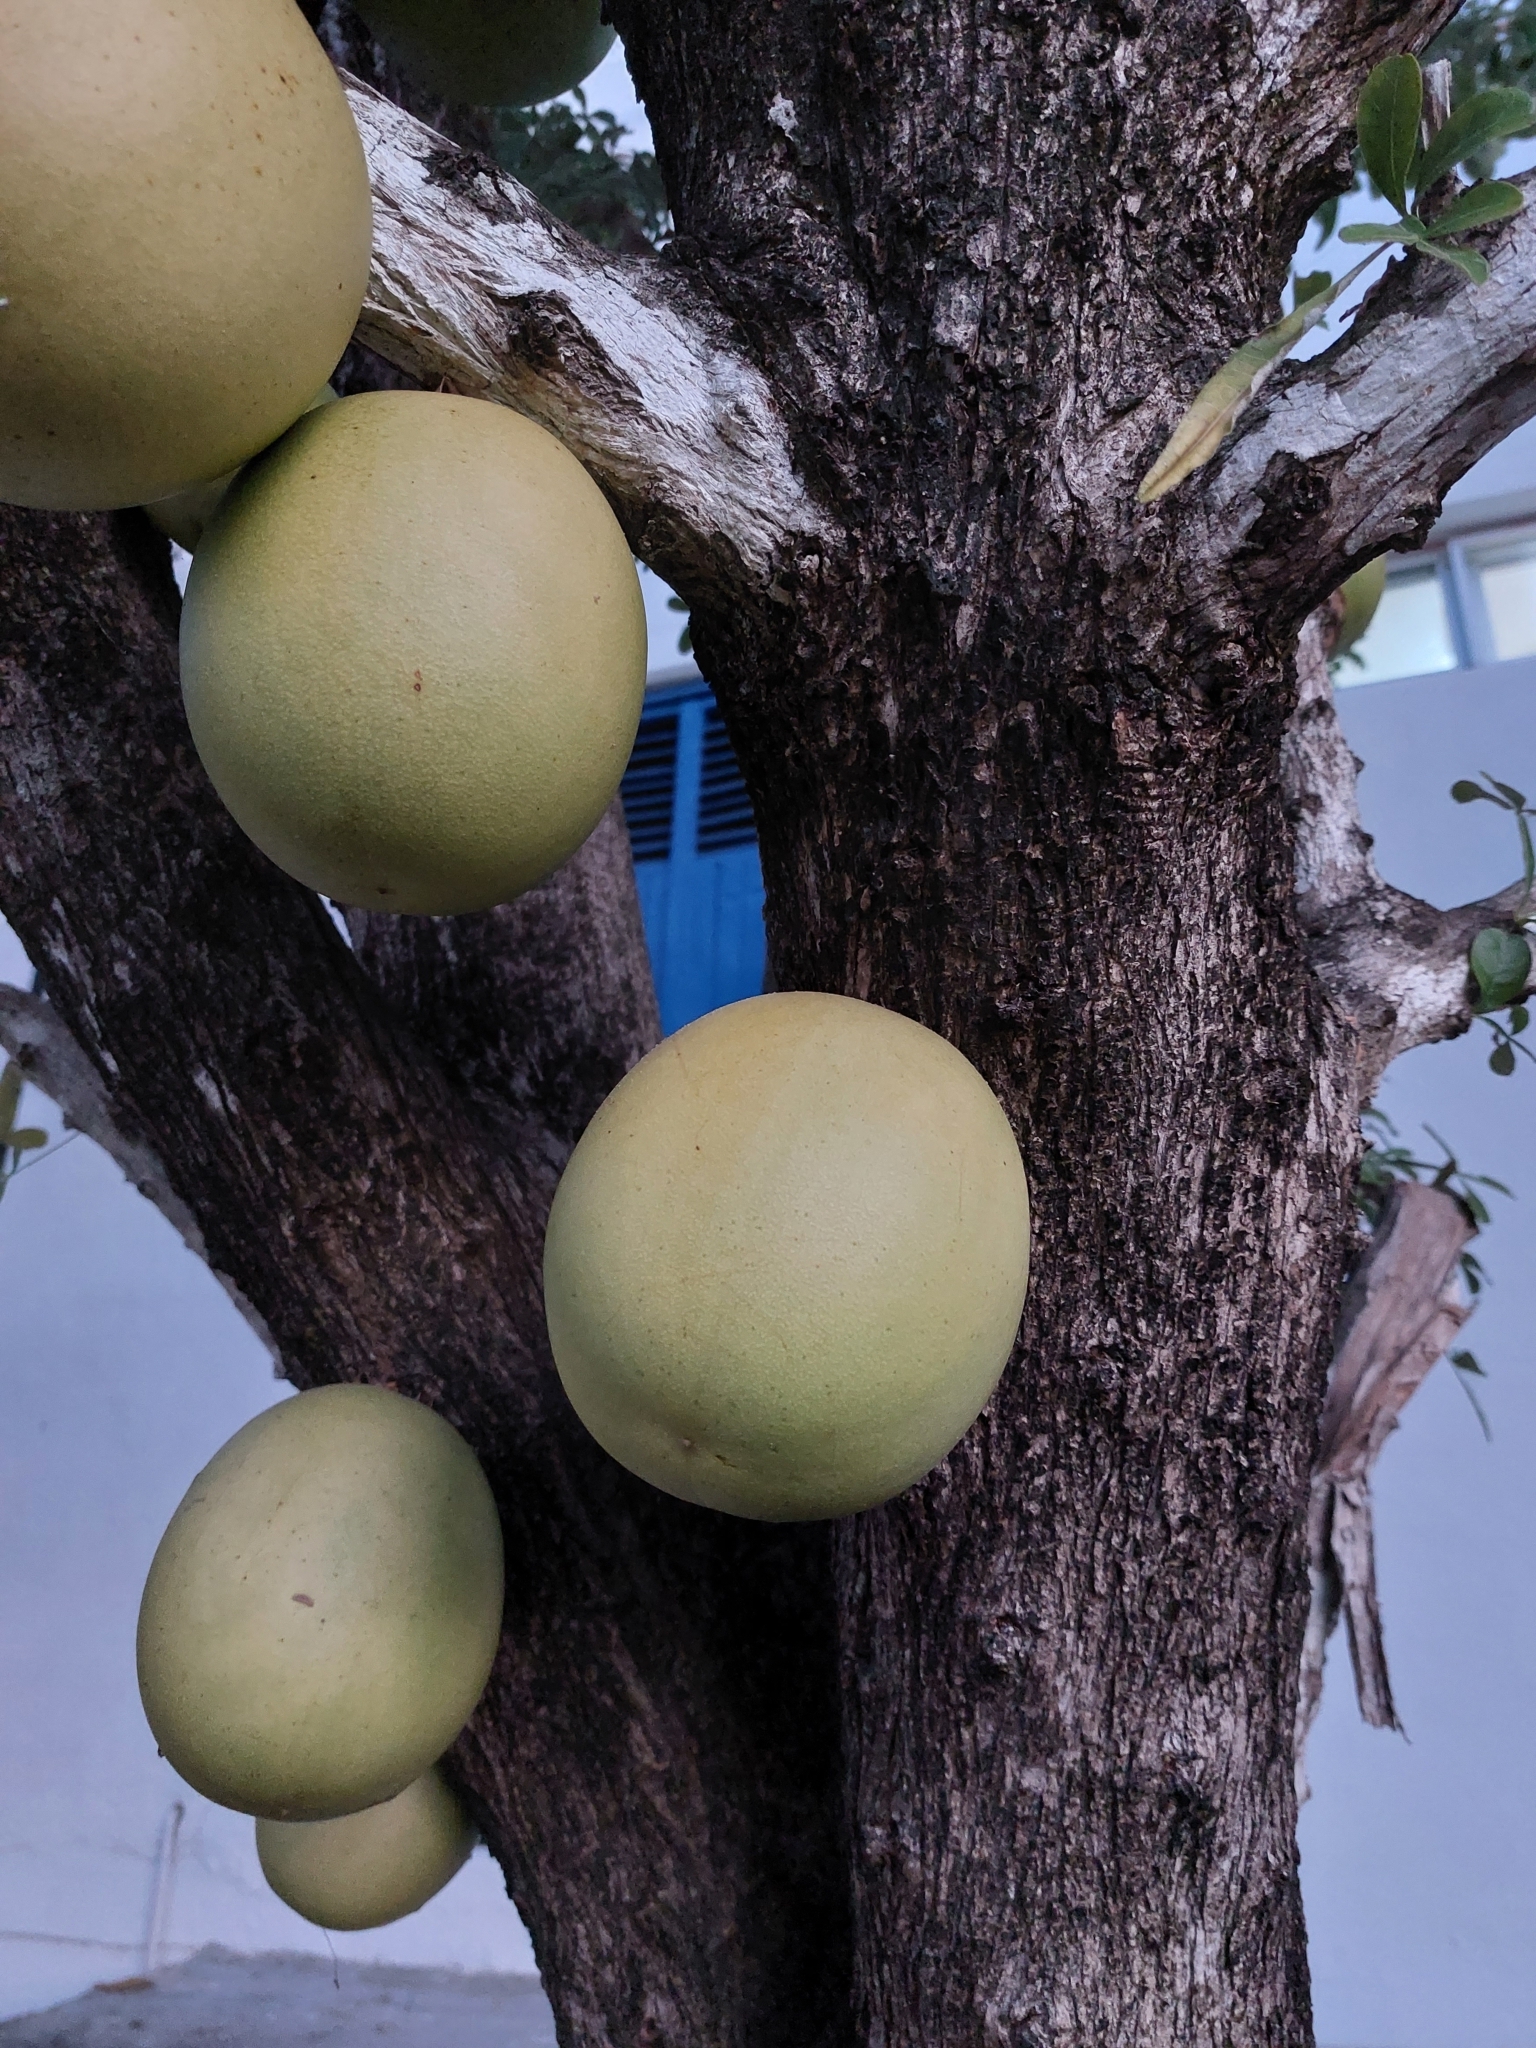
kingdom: Plantae
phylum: Tracheophyta
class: Magnoliopsida
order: Lamiales
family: Bignoniaceae
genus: Crescentia
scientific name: Crescentia alata
